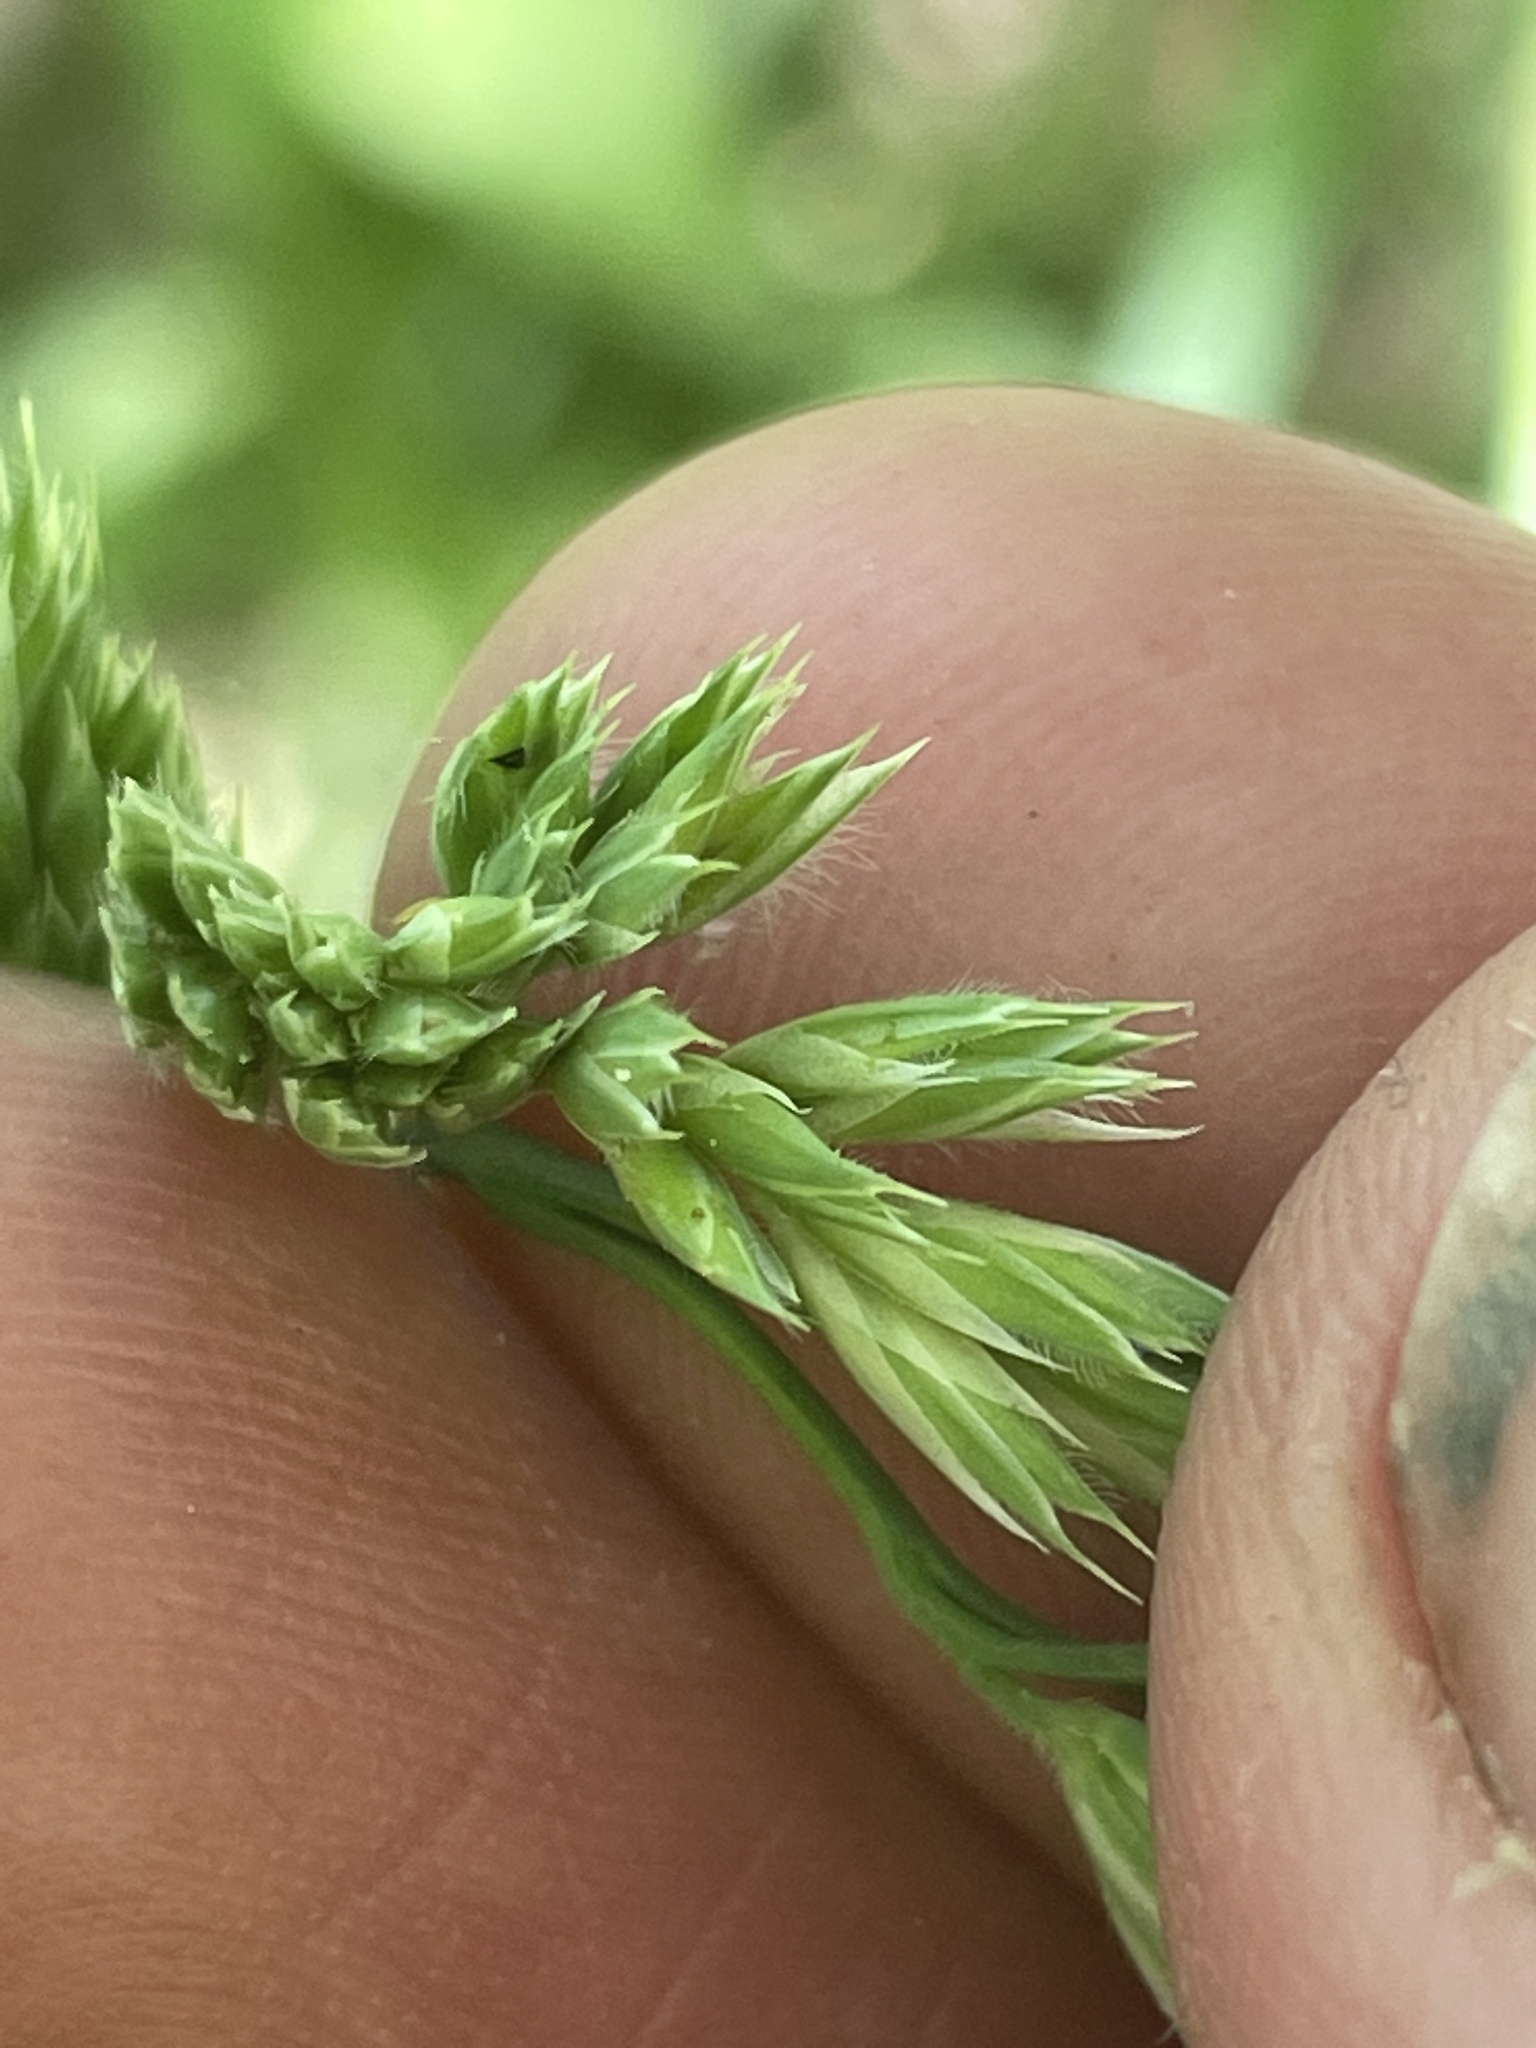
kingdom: Plantae
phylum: Tracheophyta
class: Liliopsida
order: Poales
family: Poaceae
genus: Dactylis
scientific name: Dactylis glomerata
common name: Orchardgrass
